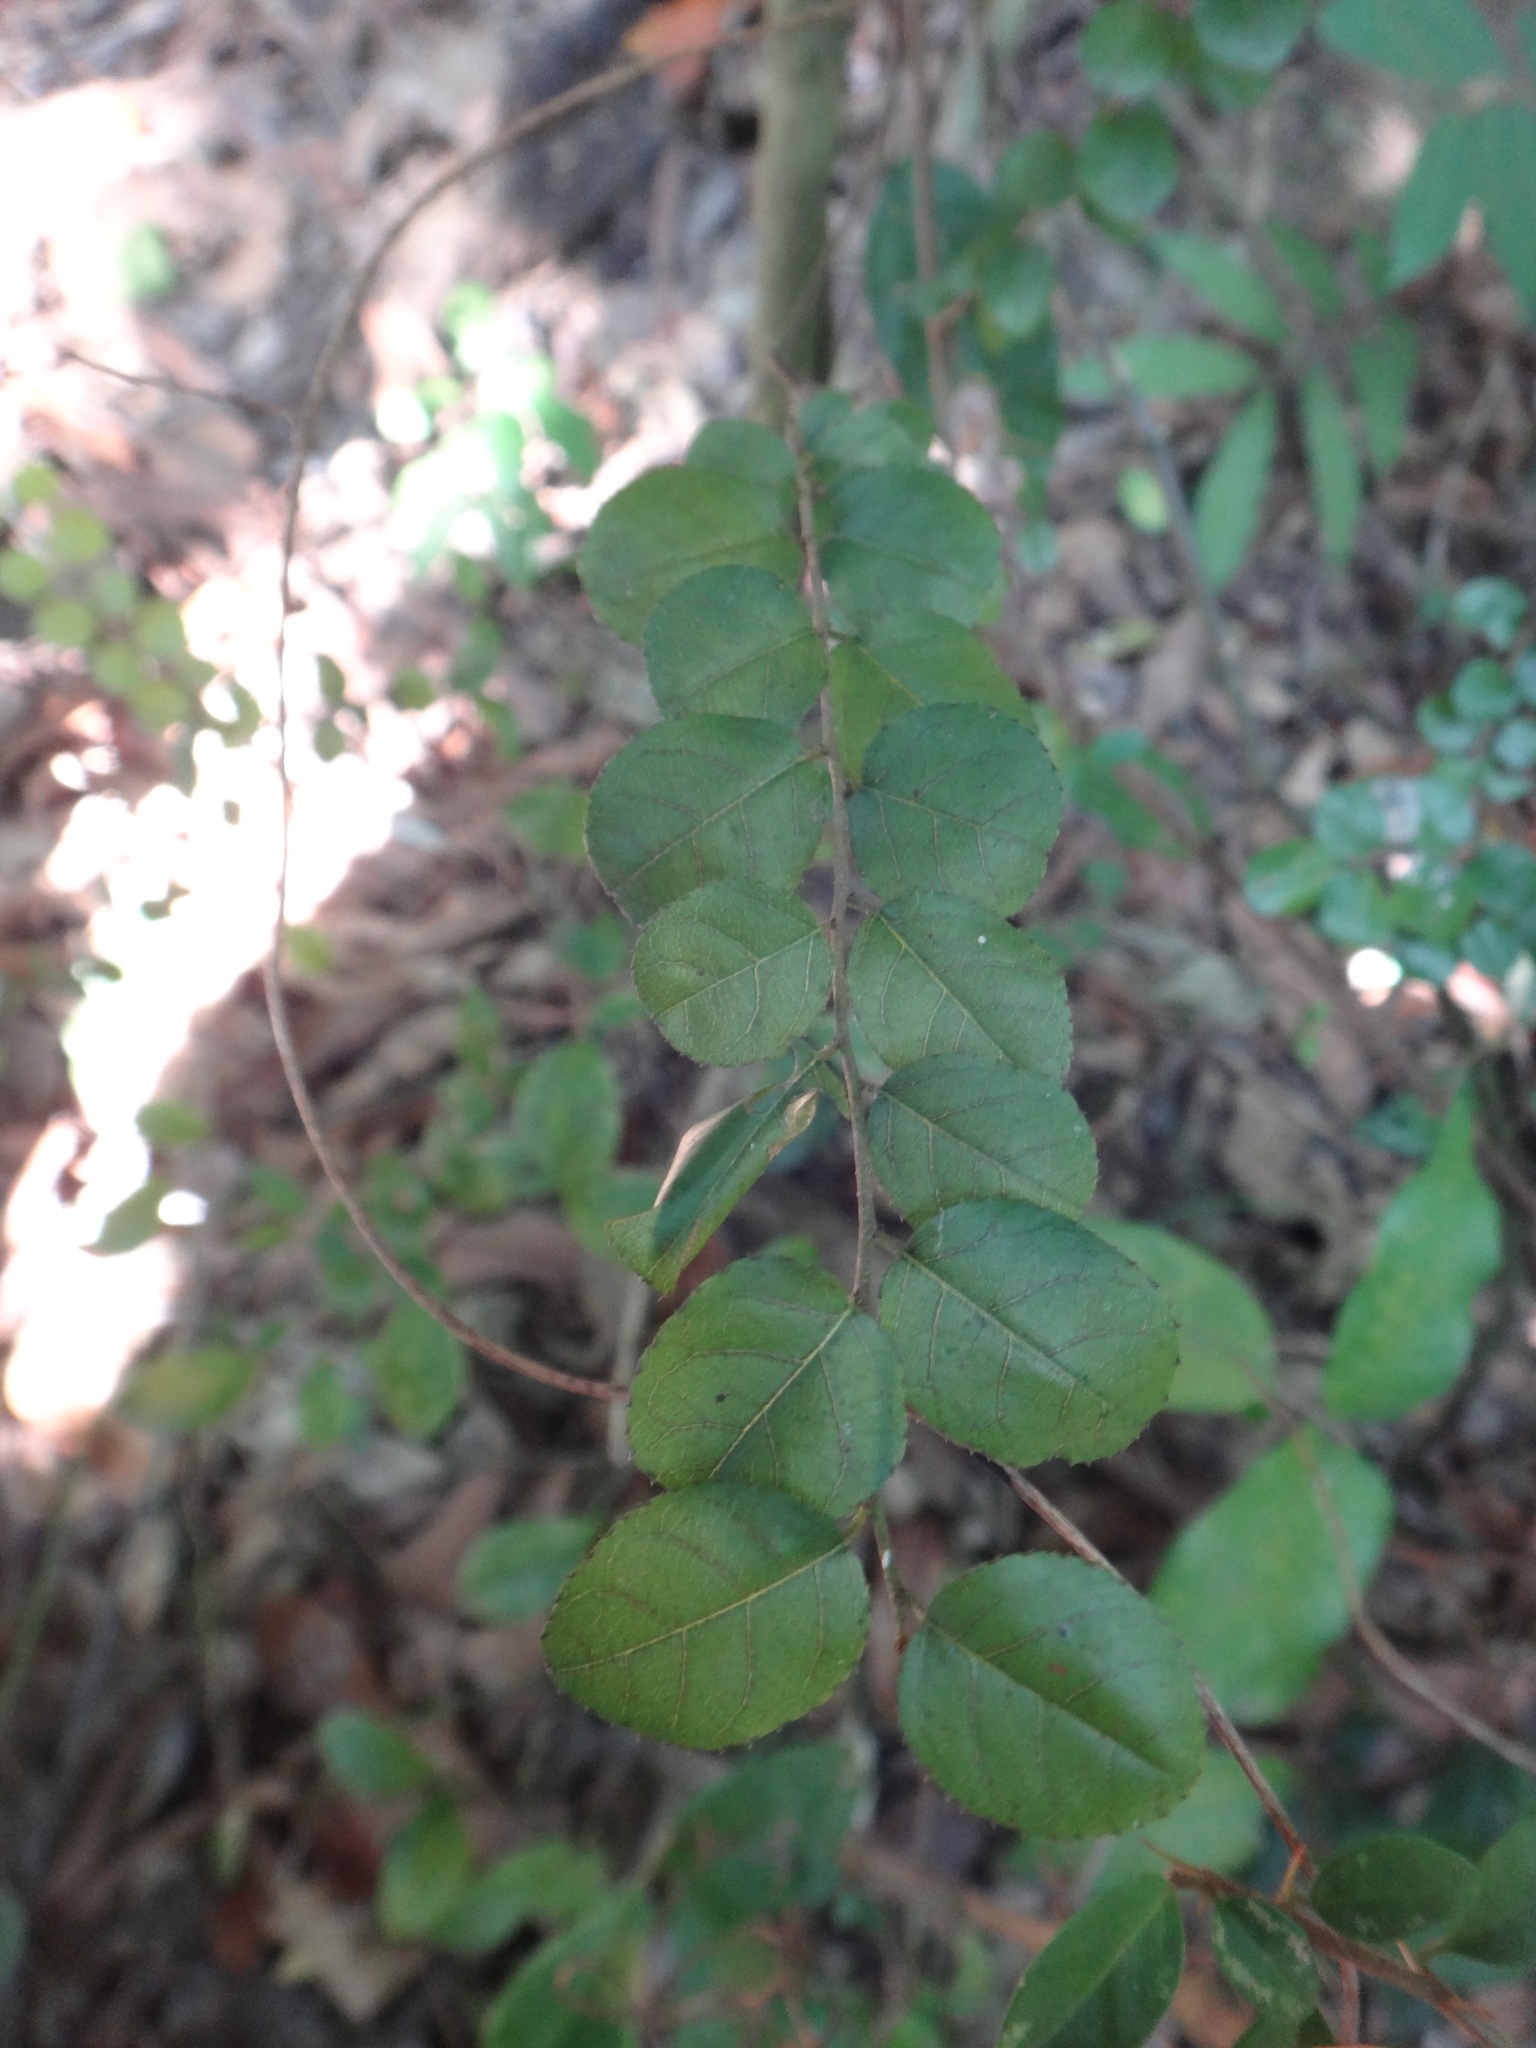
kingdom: Plantae
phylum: Tracheophyta
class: Magnoliopsida
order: Rosales
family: Rhamnaceae
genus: Sageretia
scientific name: Sageretia thea
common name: Pauper's-tea
